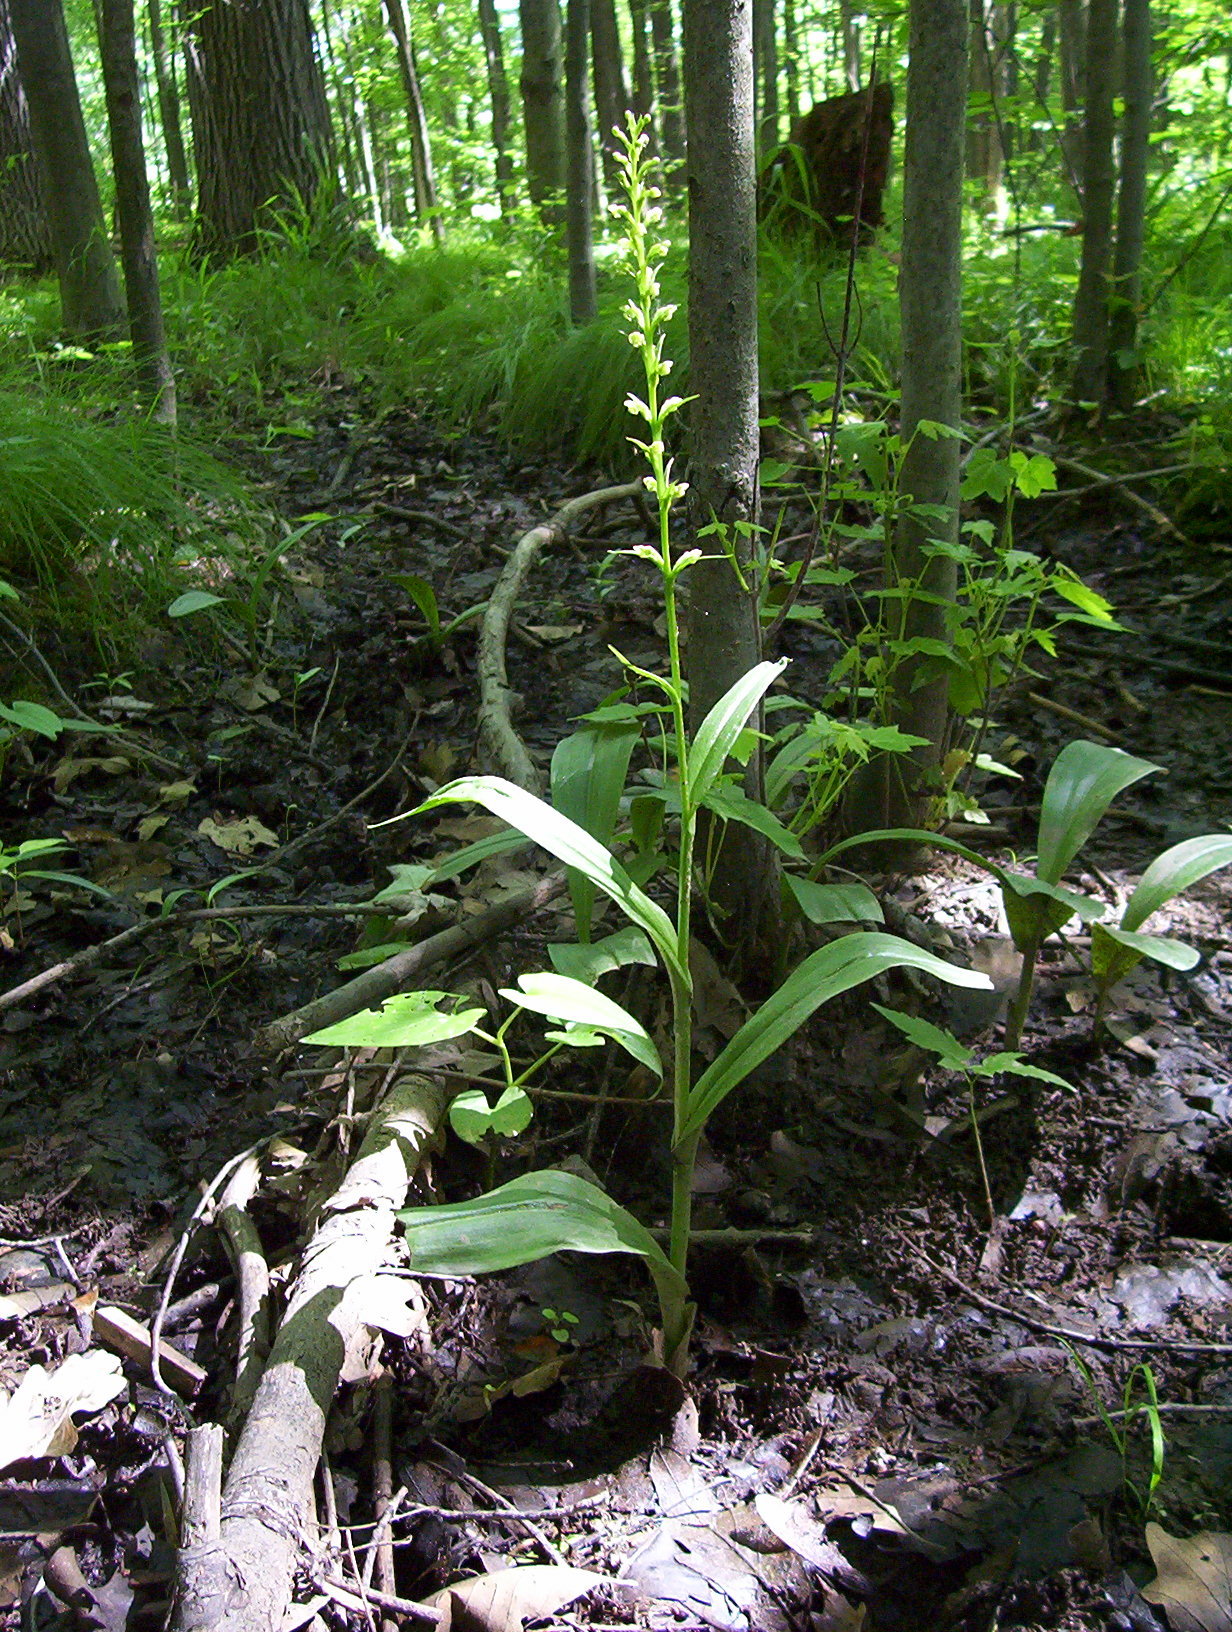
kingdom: Plantae
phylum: Tracheophyta
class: Liliopsida
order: Asparagales
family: Orchidaceae
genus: Platanthera
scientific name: Platanthera flava
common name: Gypsy-spikes
